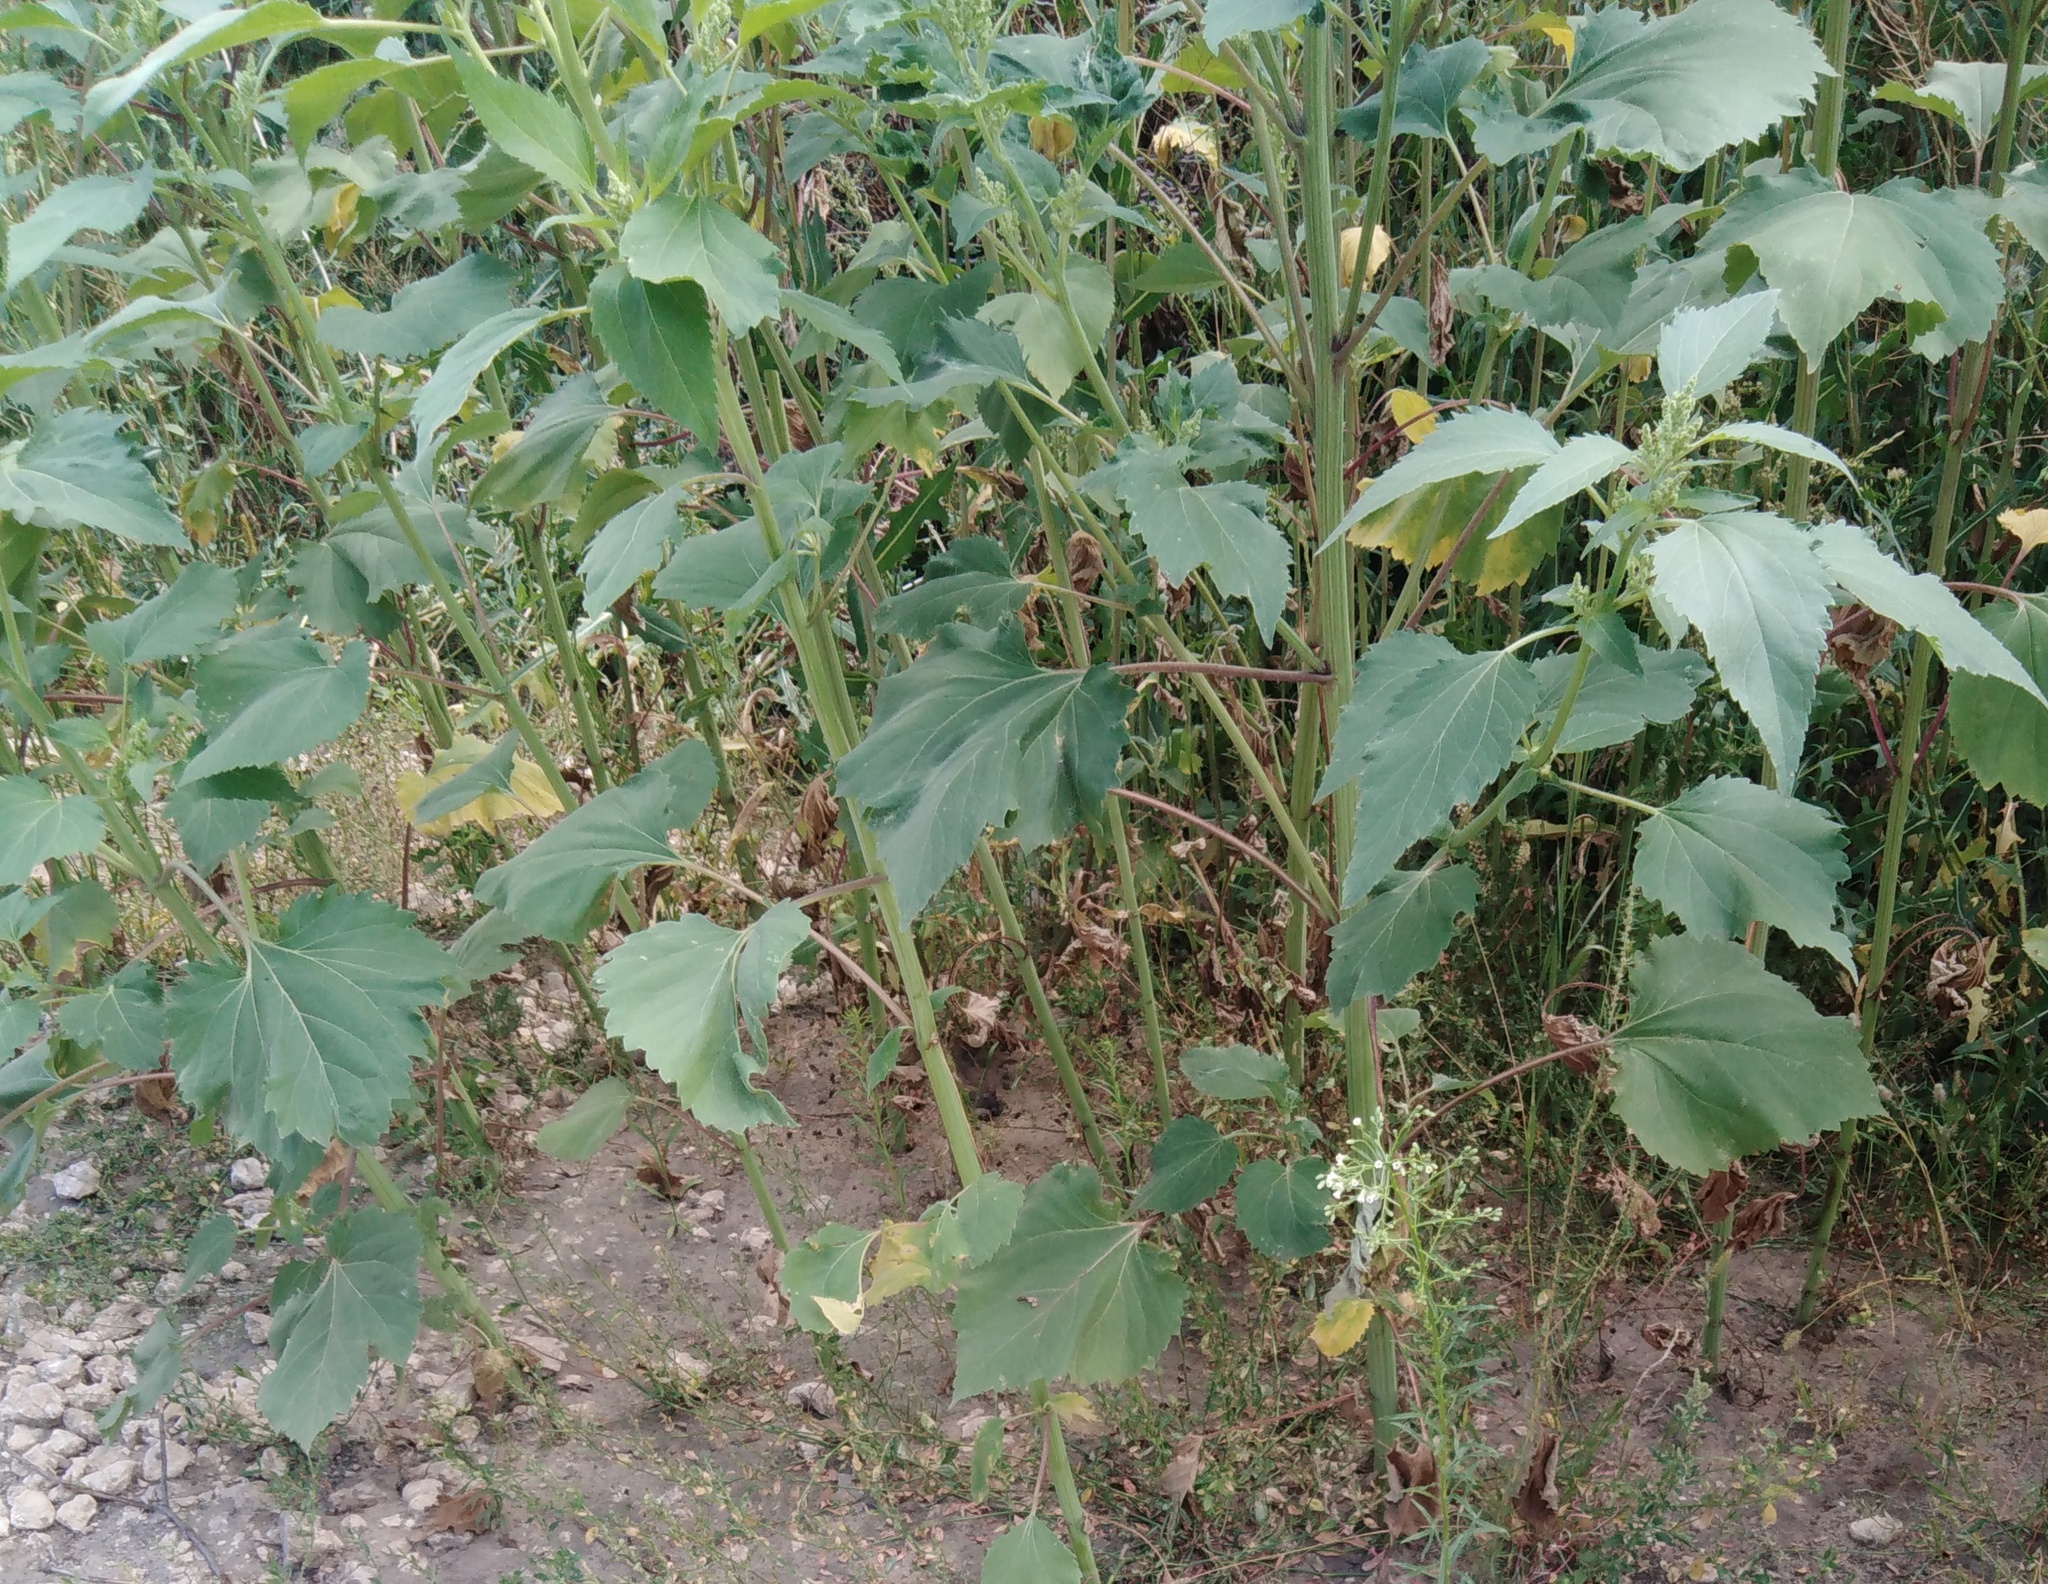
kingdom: Plantae
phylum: Tracheophyta
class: Magnoliopsida
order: Asterales
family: Asteraceae
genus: Cyclachaena
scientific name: Cyclachaena xanthiifolia
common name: Giant sumpweed
